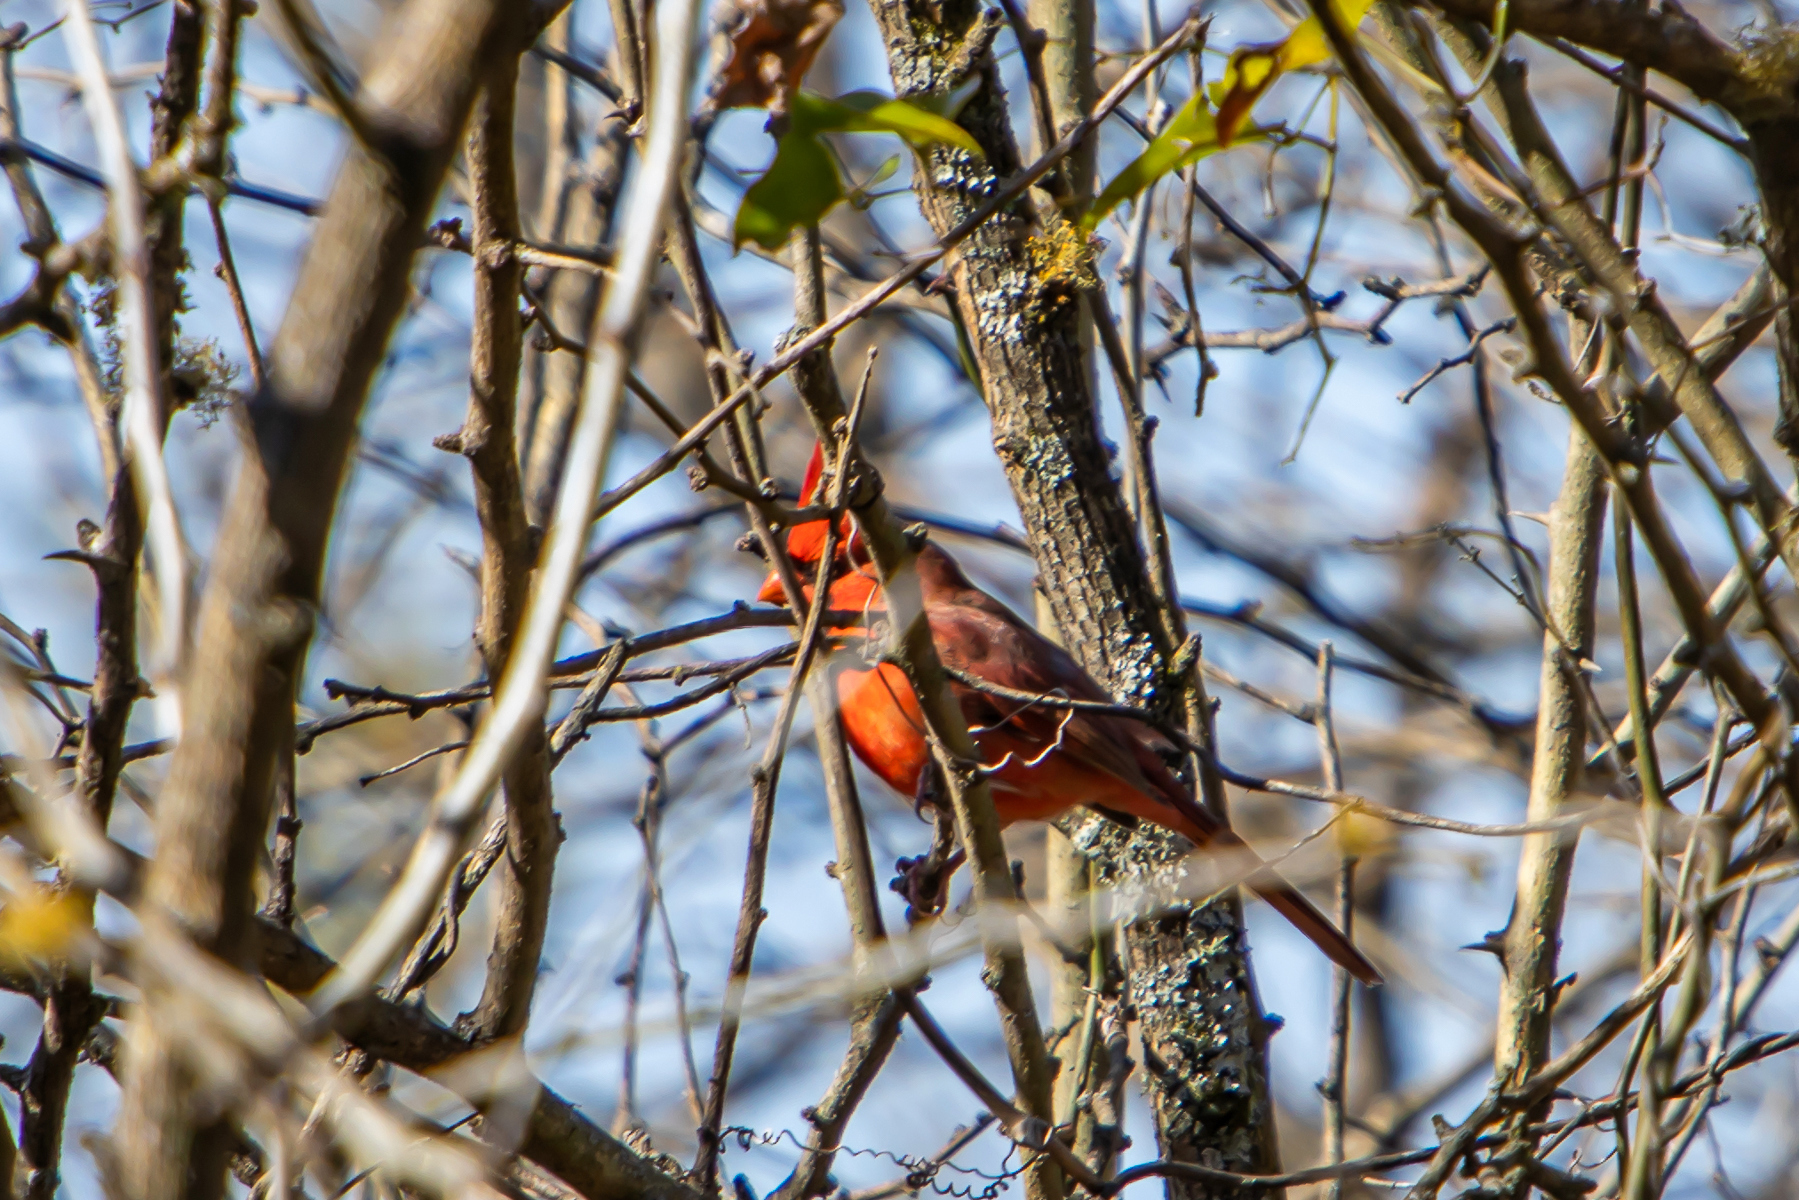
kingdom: Animalia
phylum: Chordata
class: Aves
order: Passeriformes
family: Cardinalidae
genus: Cardinalis
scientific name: Cardinalis cardinalis
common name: Northern cardinal
